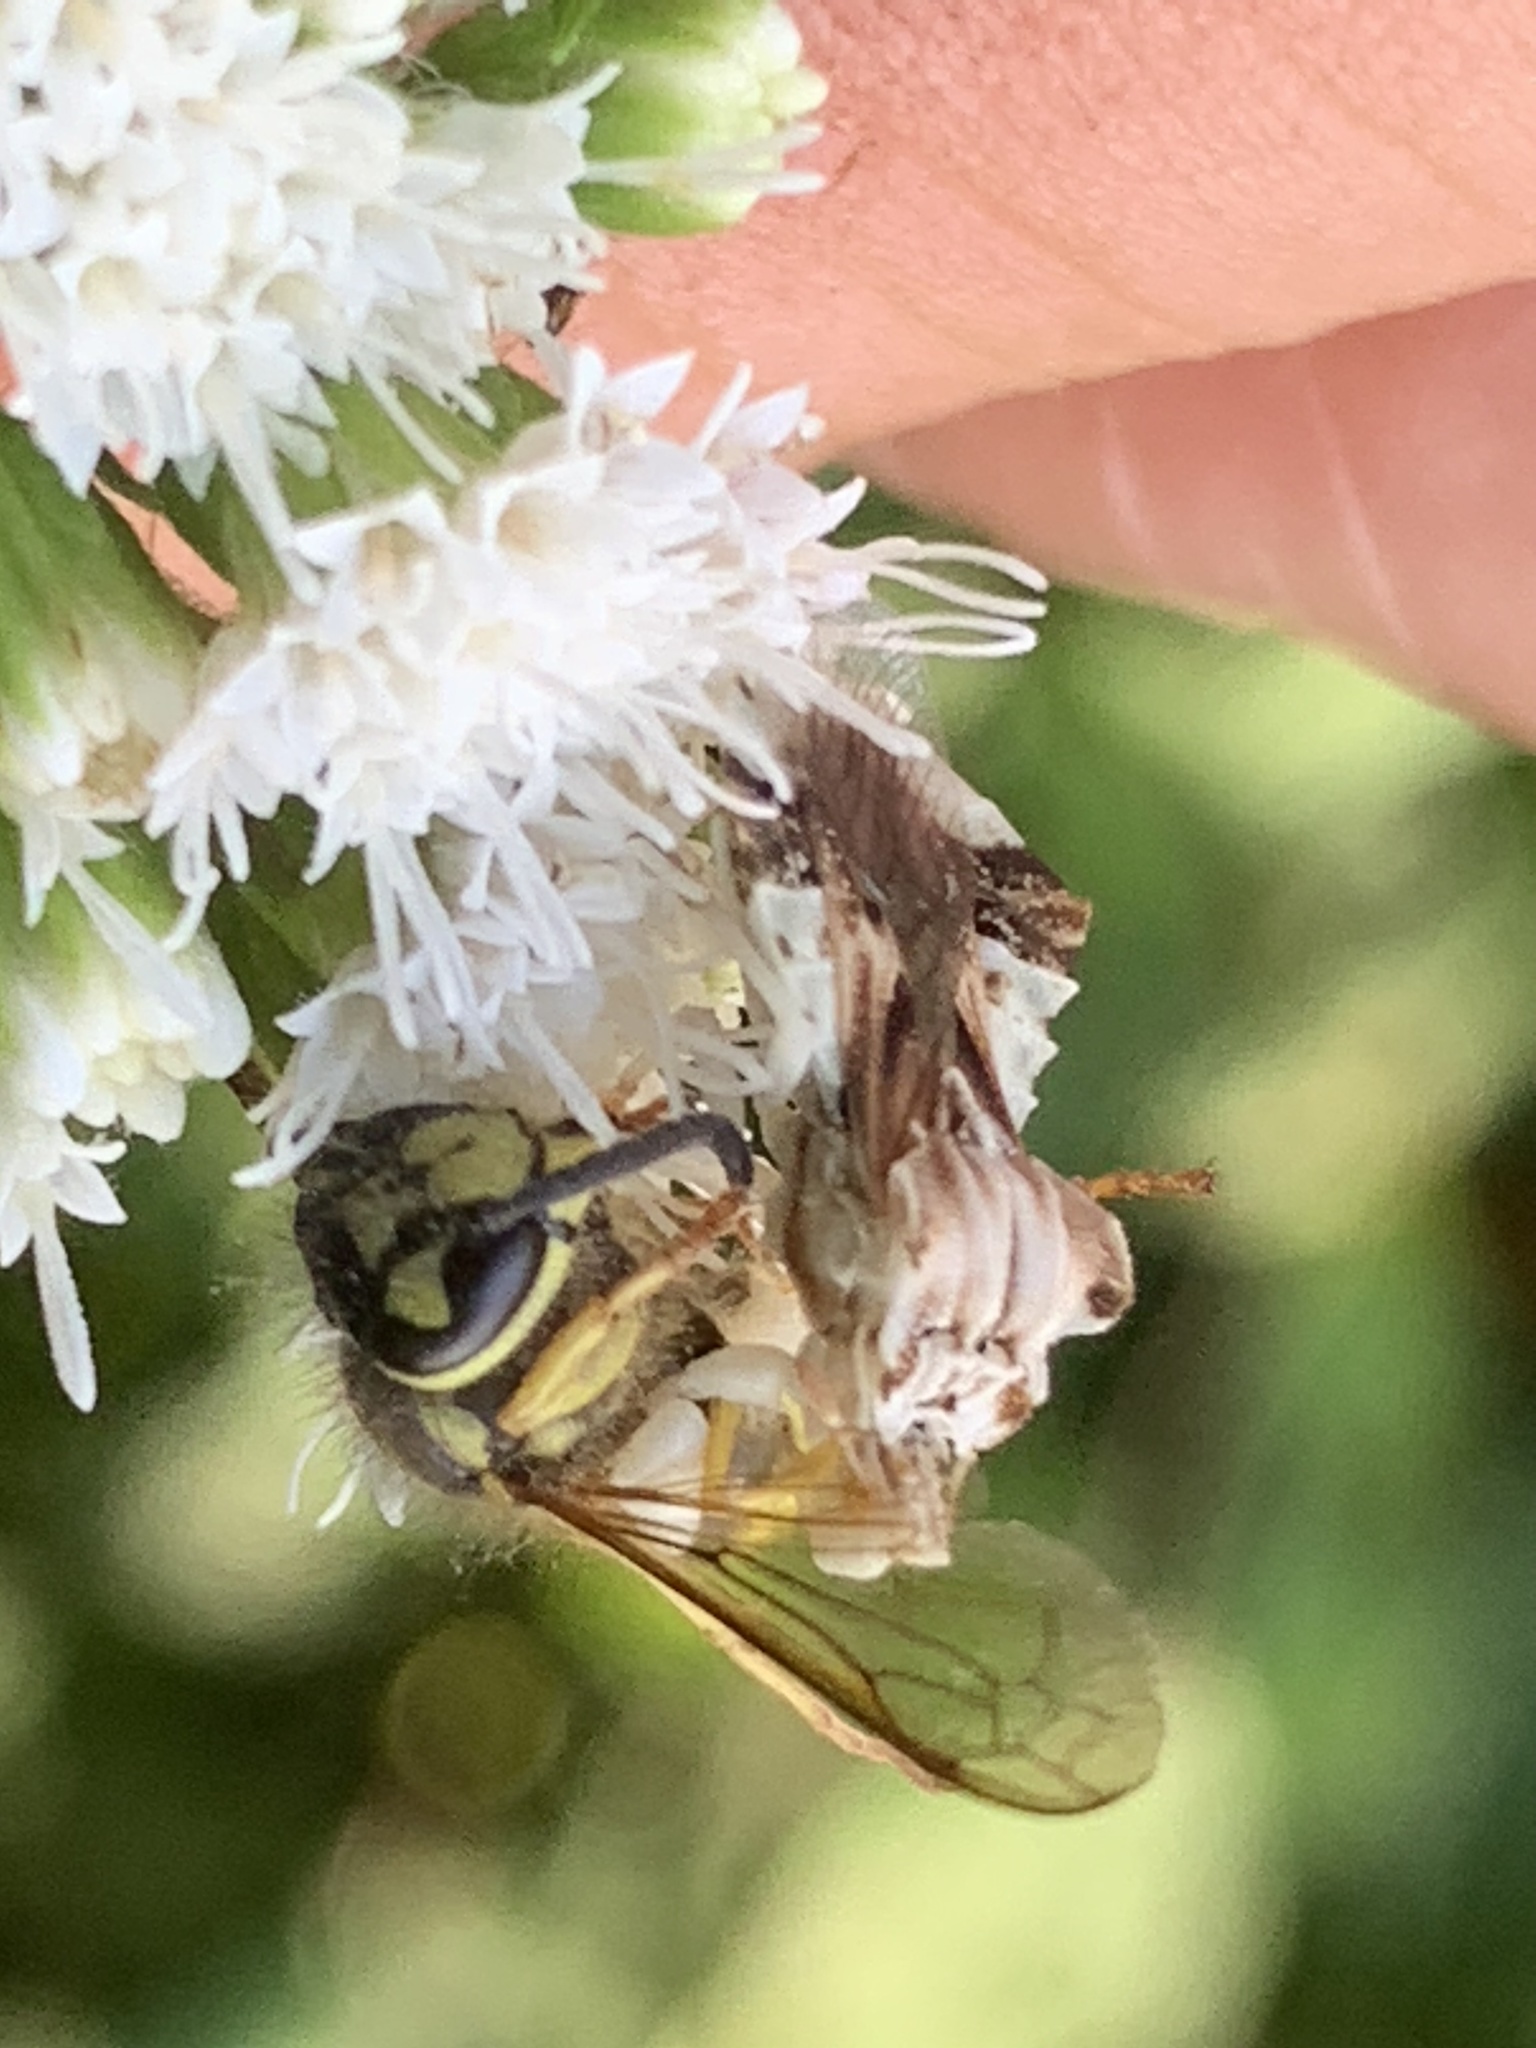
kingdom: Animalia
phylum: Arthropoda
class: Insecta
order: Hymenoptera
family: Vespidae
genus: Vespula
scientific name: Vespula maculifrons
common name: Eastern yellowjacket
